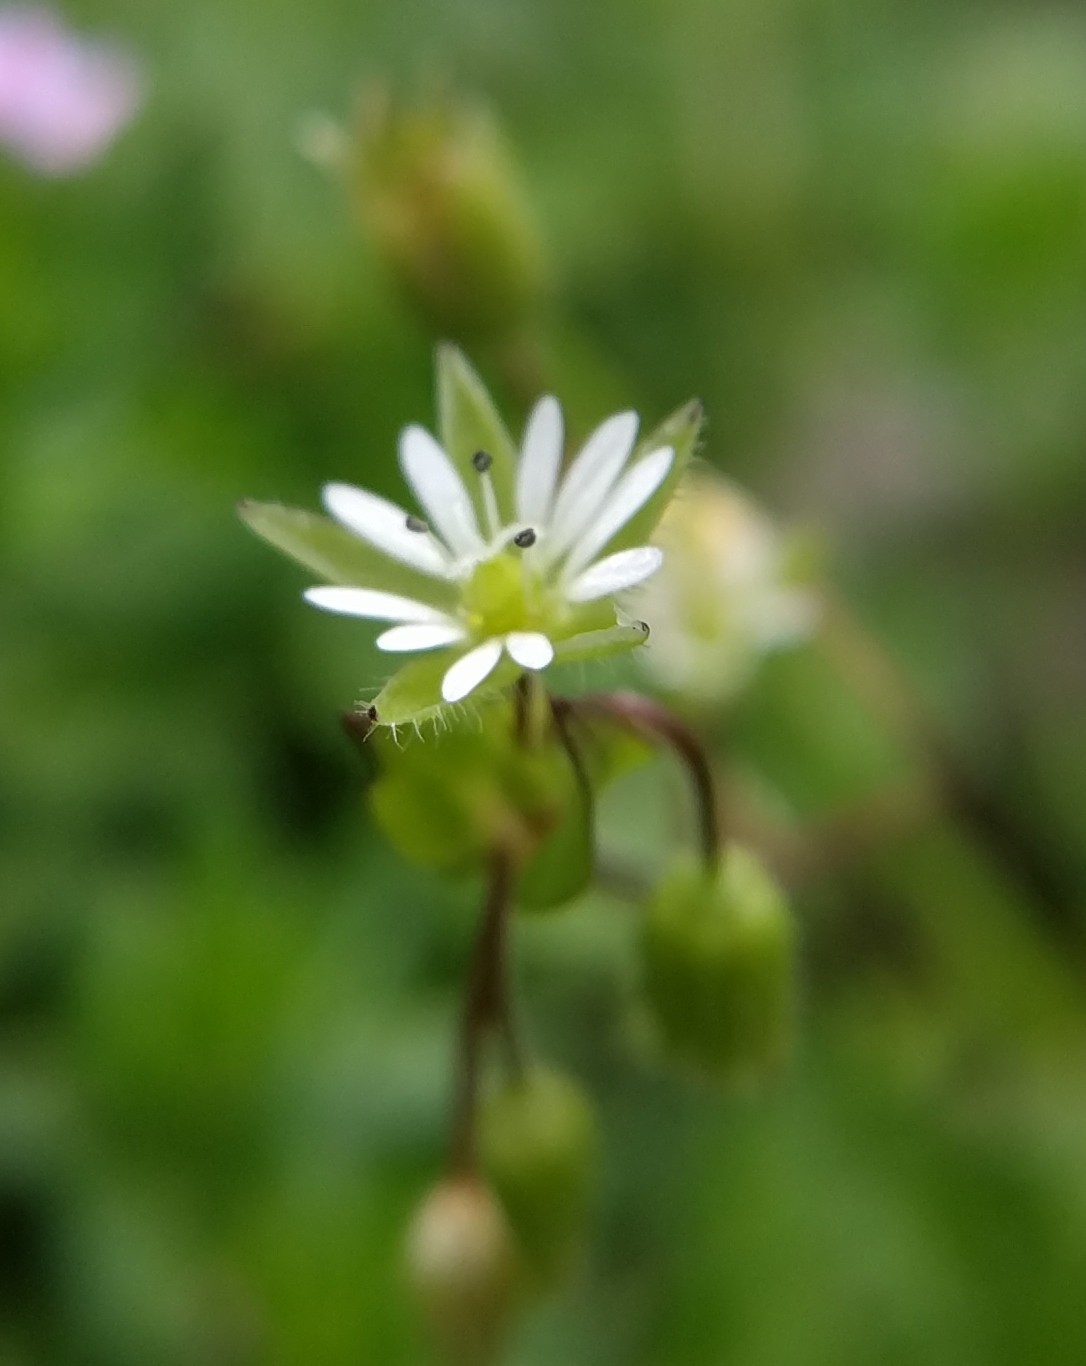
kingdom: Plantae
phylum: Tracheophyta
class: Magnoliopsida
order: Caryophyllales
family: Caryophyllaceae
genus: Stellaria
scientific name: Stellaria media
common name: Common chickweed
